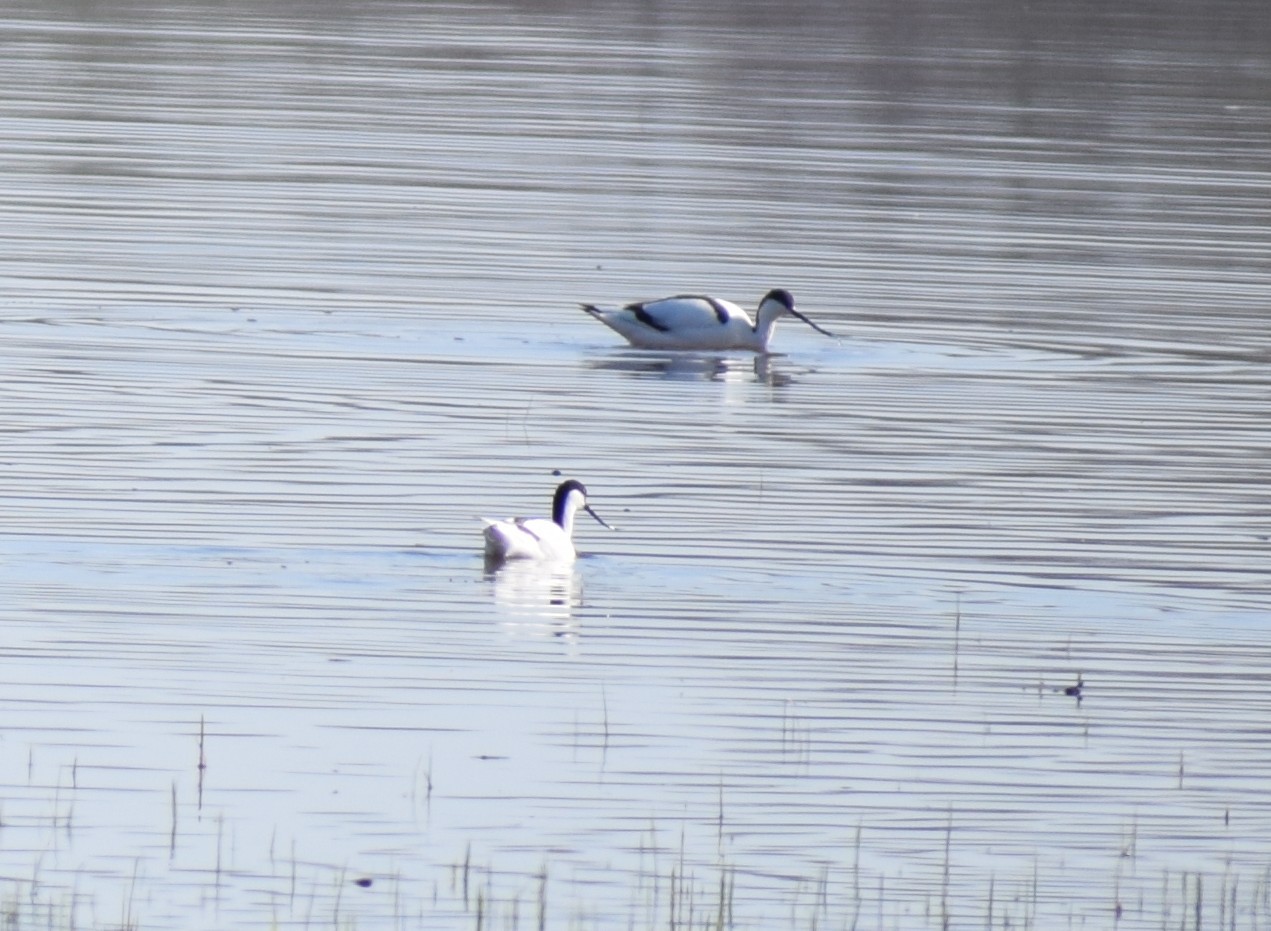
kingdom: Animalia
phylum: Chordata
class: Aves
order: Charadriiformes
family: Recurvirostridae
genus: Recurvirostra
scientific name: Recurvirostra avosetta
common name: Pied avocet
